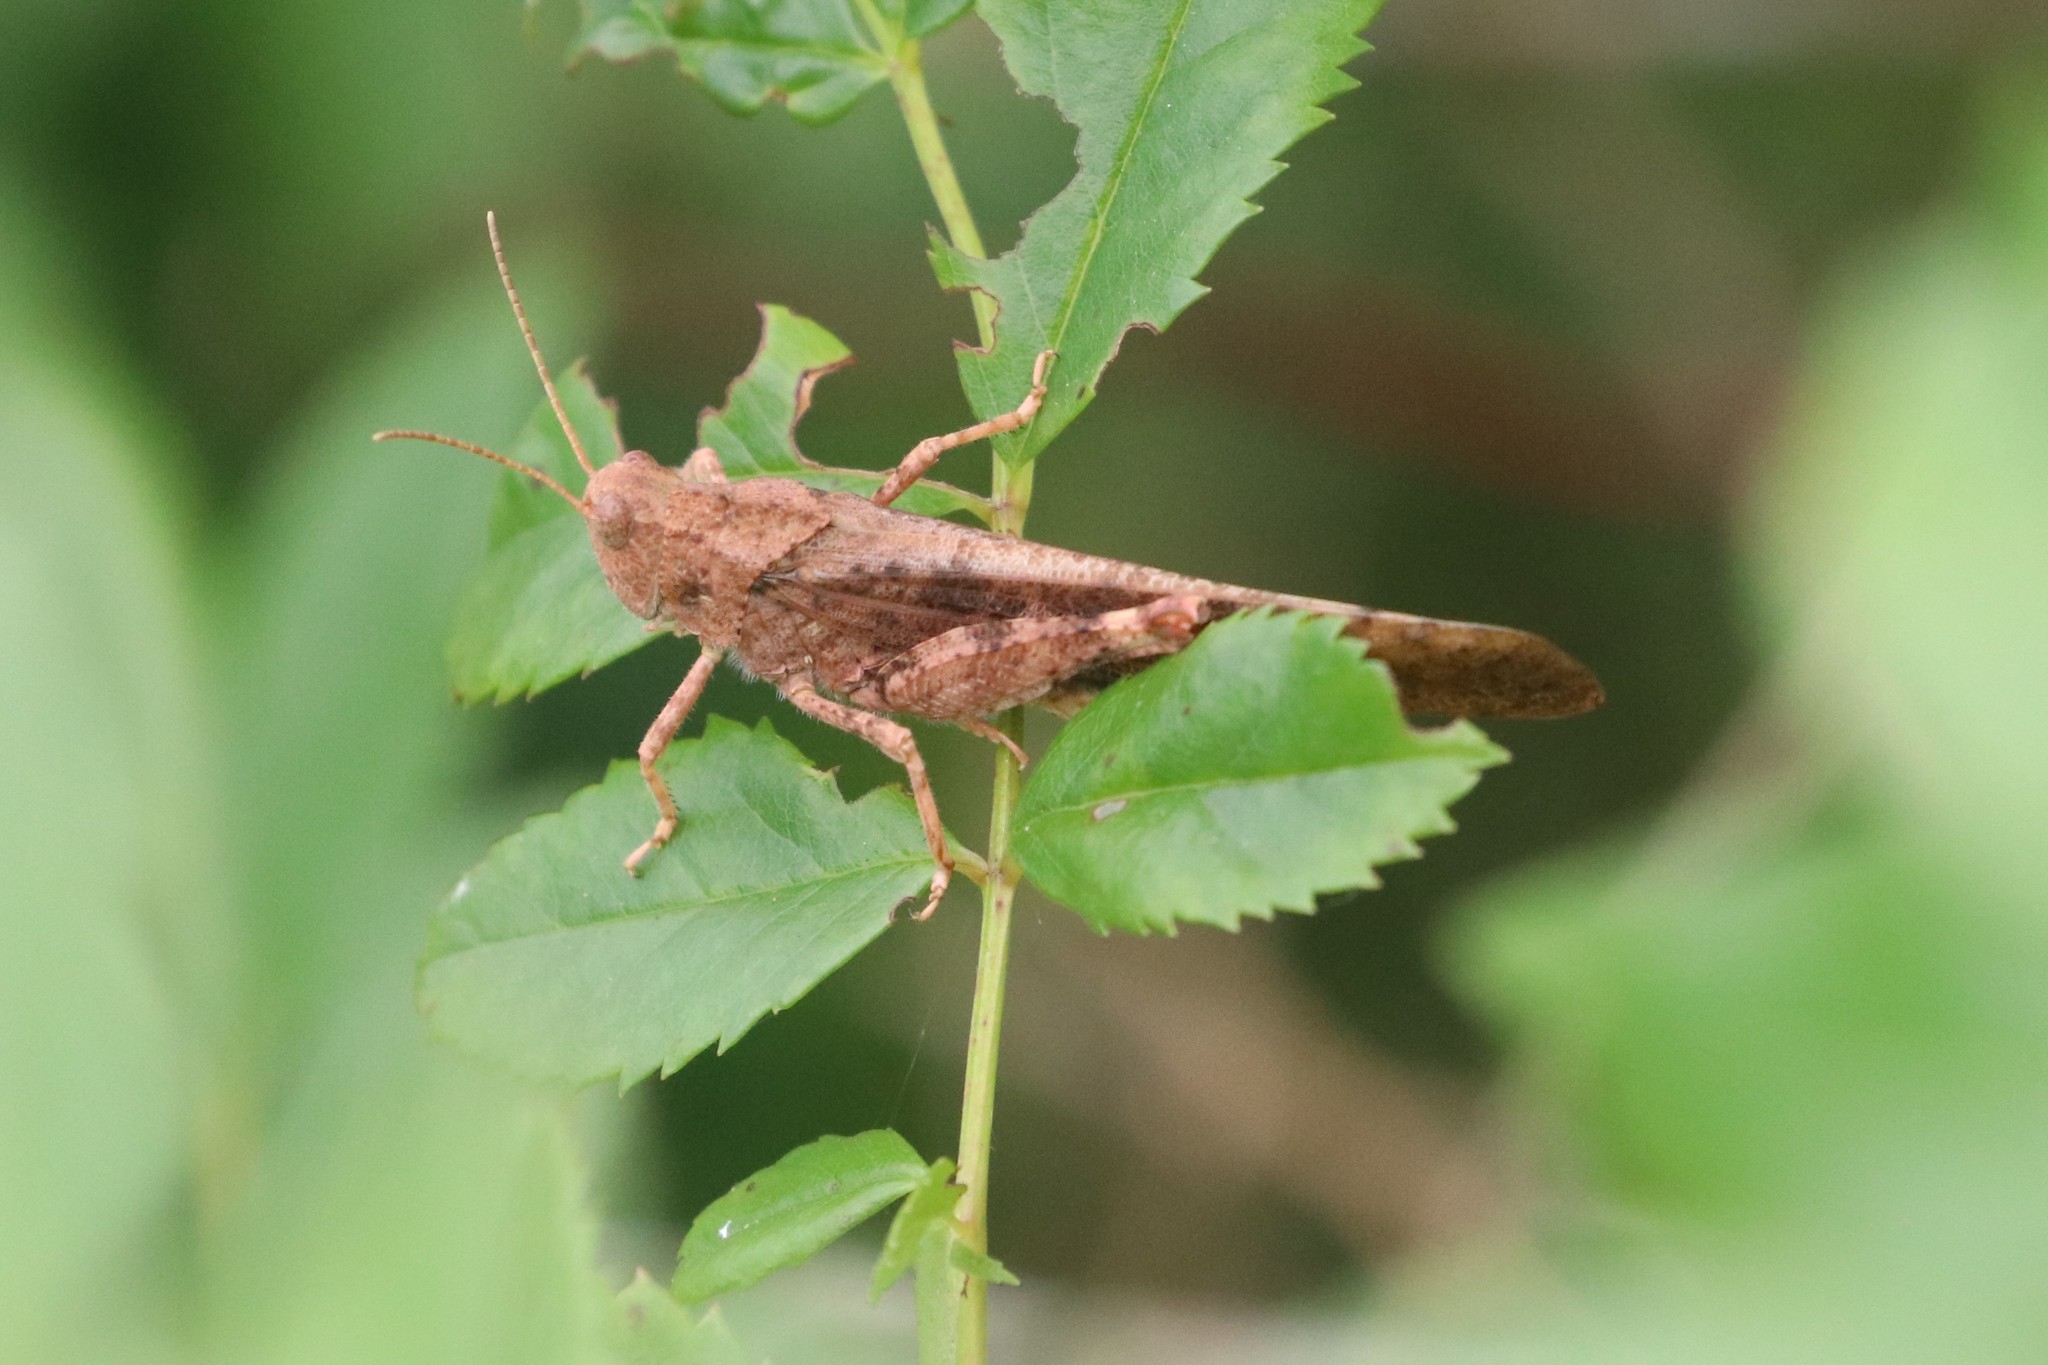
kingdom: Animalia
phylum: Arthropoda
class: Insecta
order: Orthoptera
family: Acrididae
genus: Dissosteira
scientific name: Dissosteira carolina
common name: Carolina grasshopper
